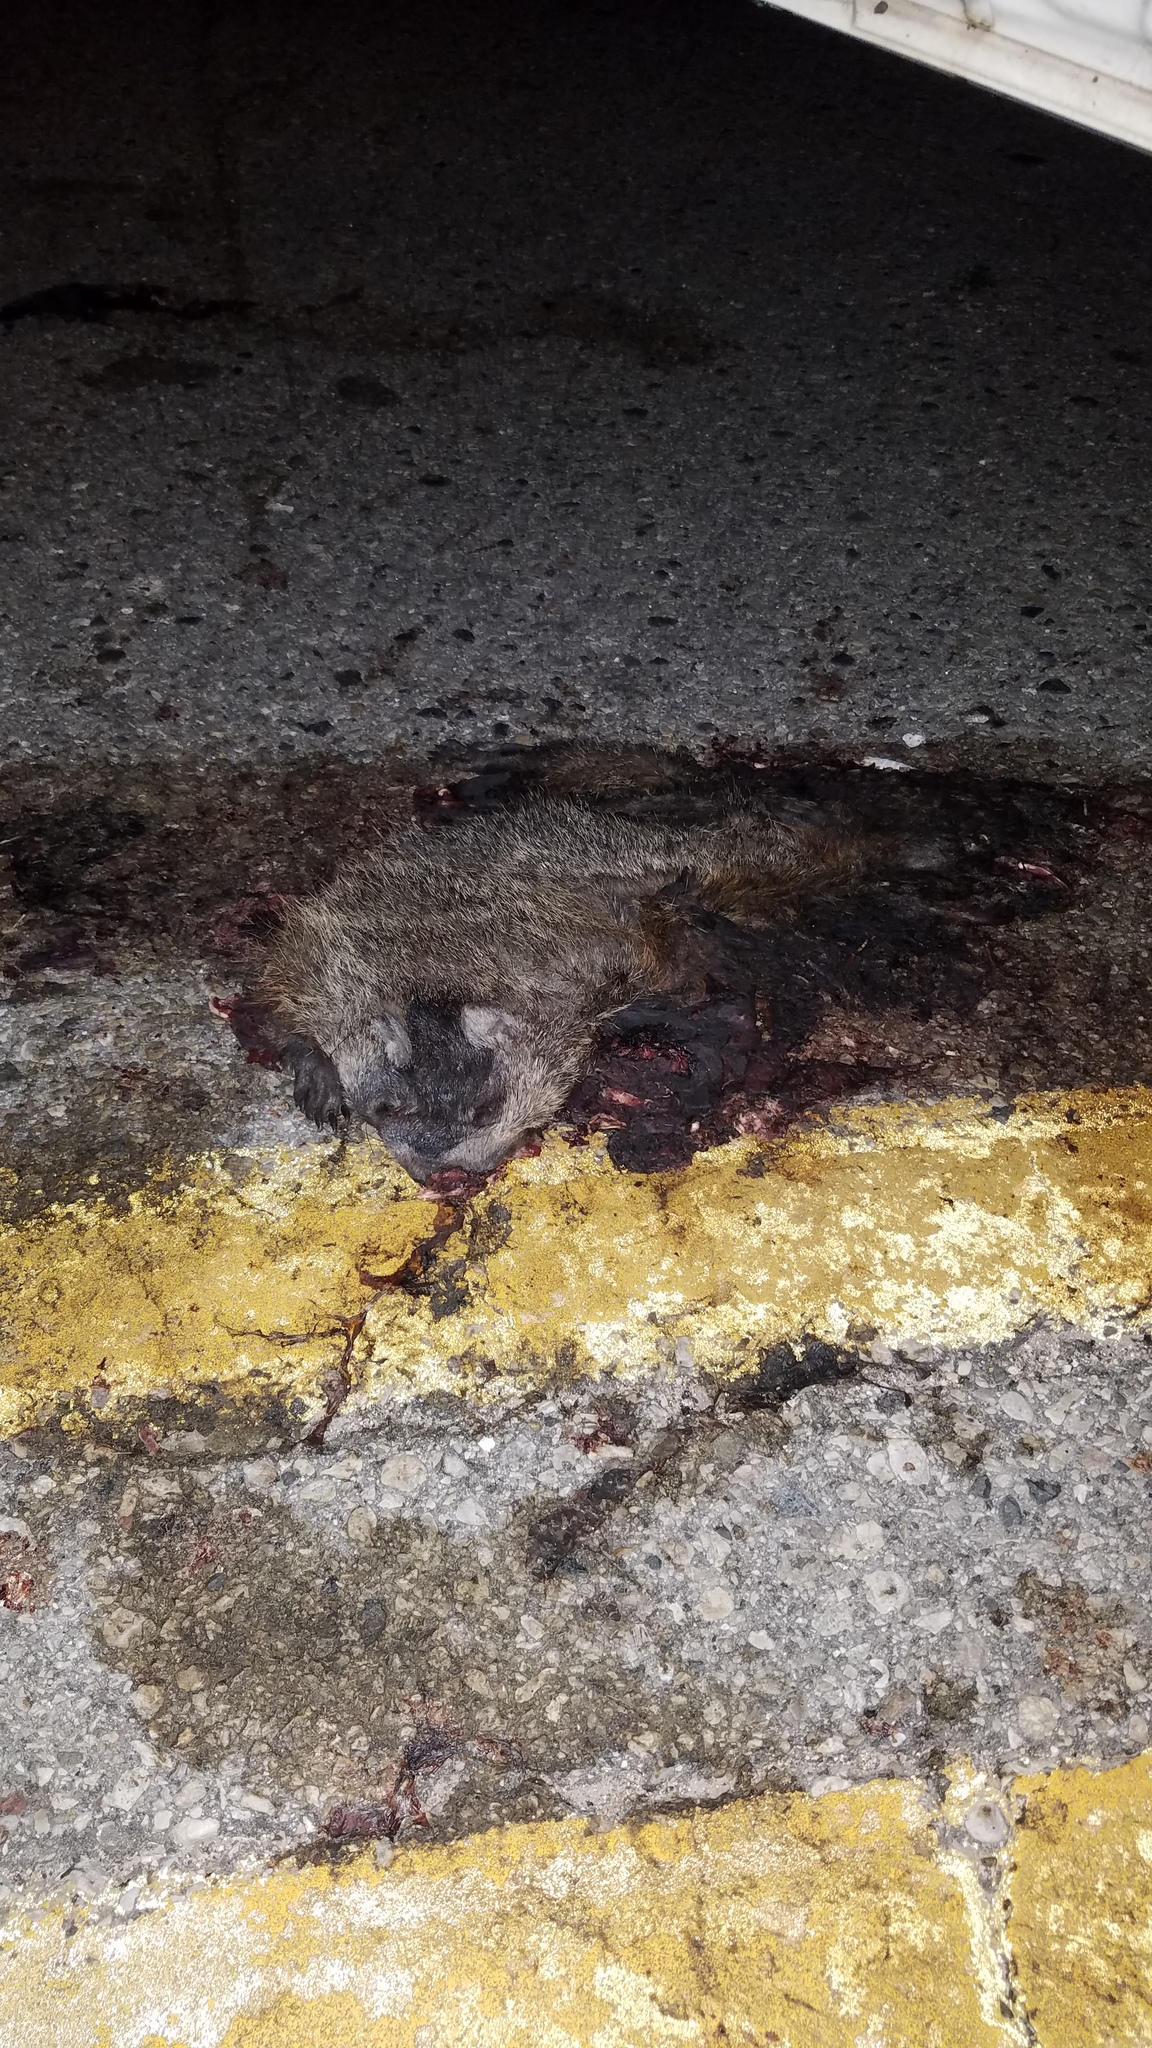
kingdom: Animalia
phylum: Chordata
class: Mammalia
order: Carnivora
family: Procyonidae
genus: Procyon
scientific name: Procyon lotor
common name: Raccoon
